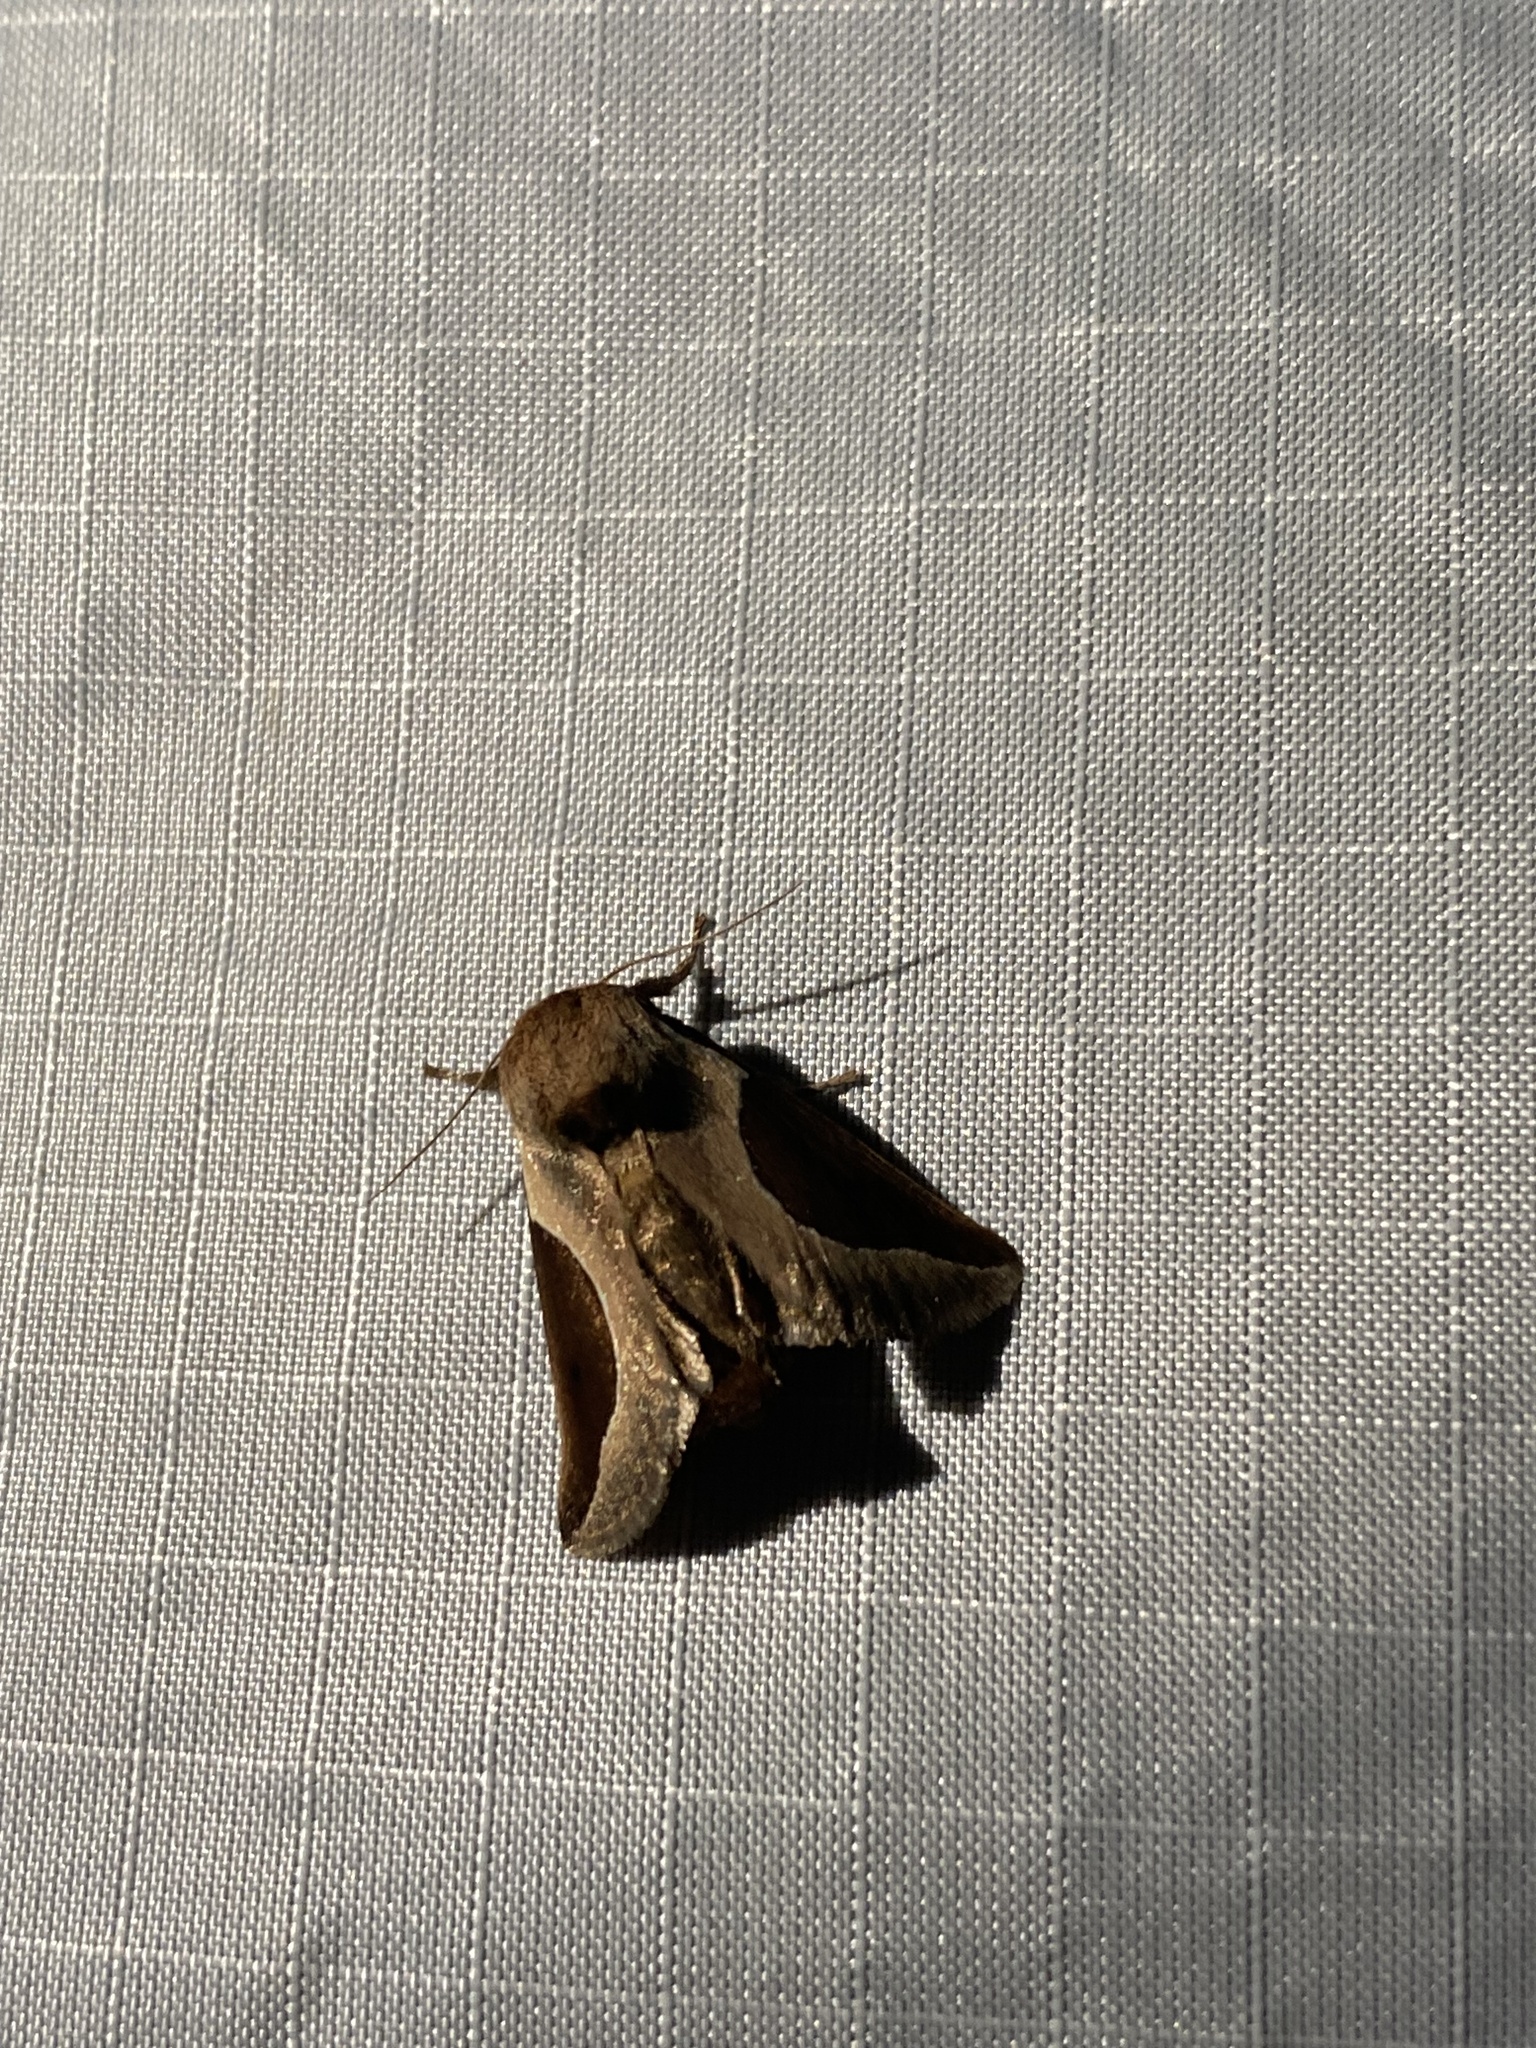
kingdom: Animalia
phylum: Arthropoda
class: Insecta
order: Lepidoptera
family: Limacodidae
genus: Prolimacodes
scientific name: Prolimacodes badia
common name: Skiff moth
